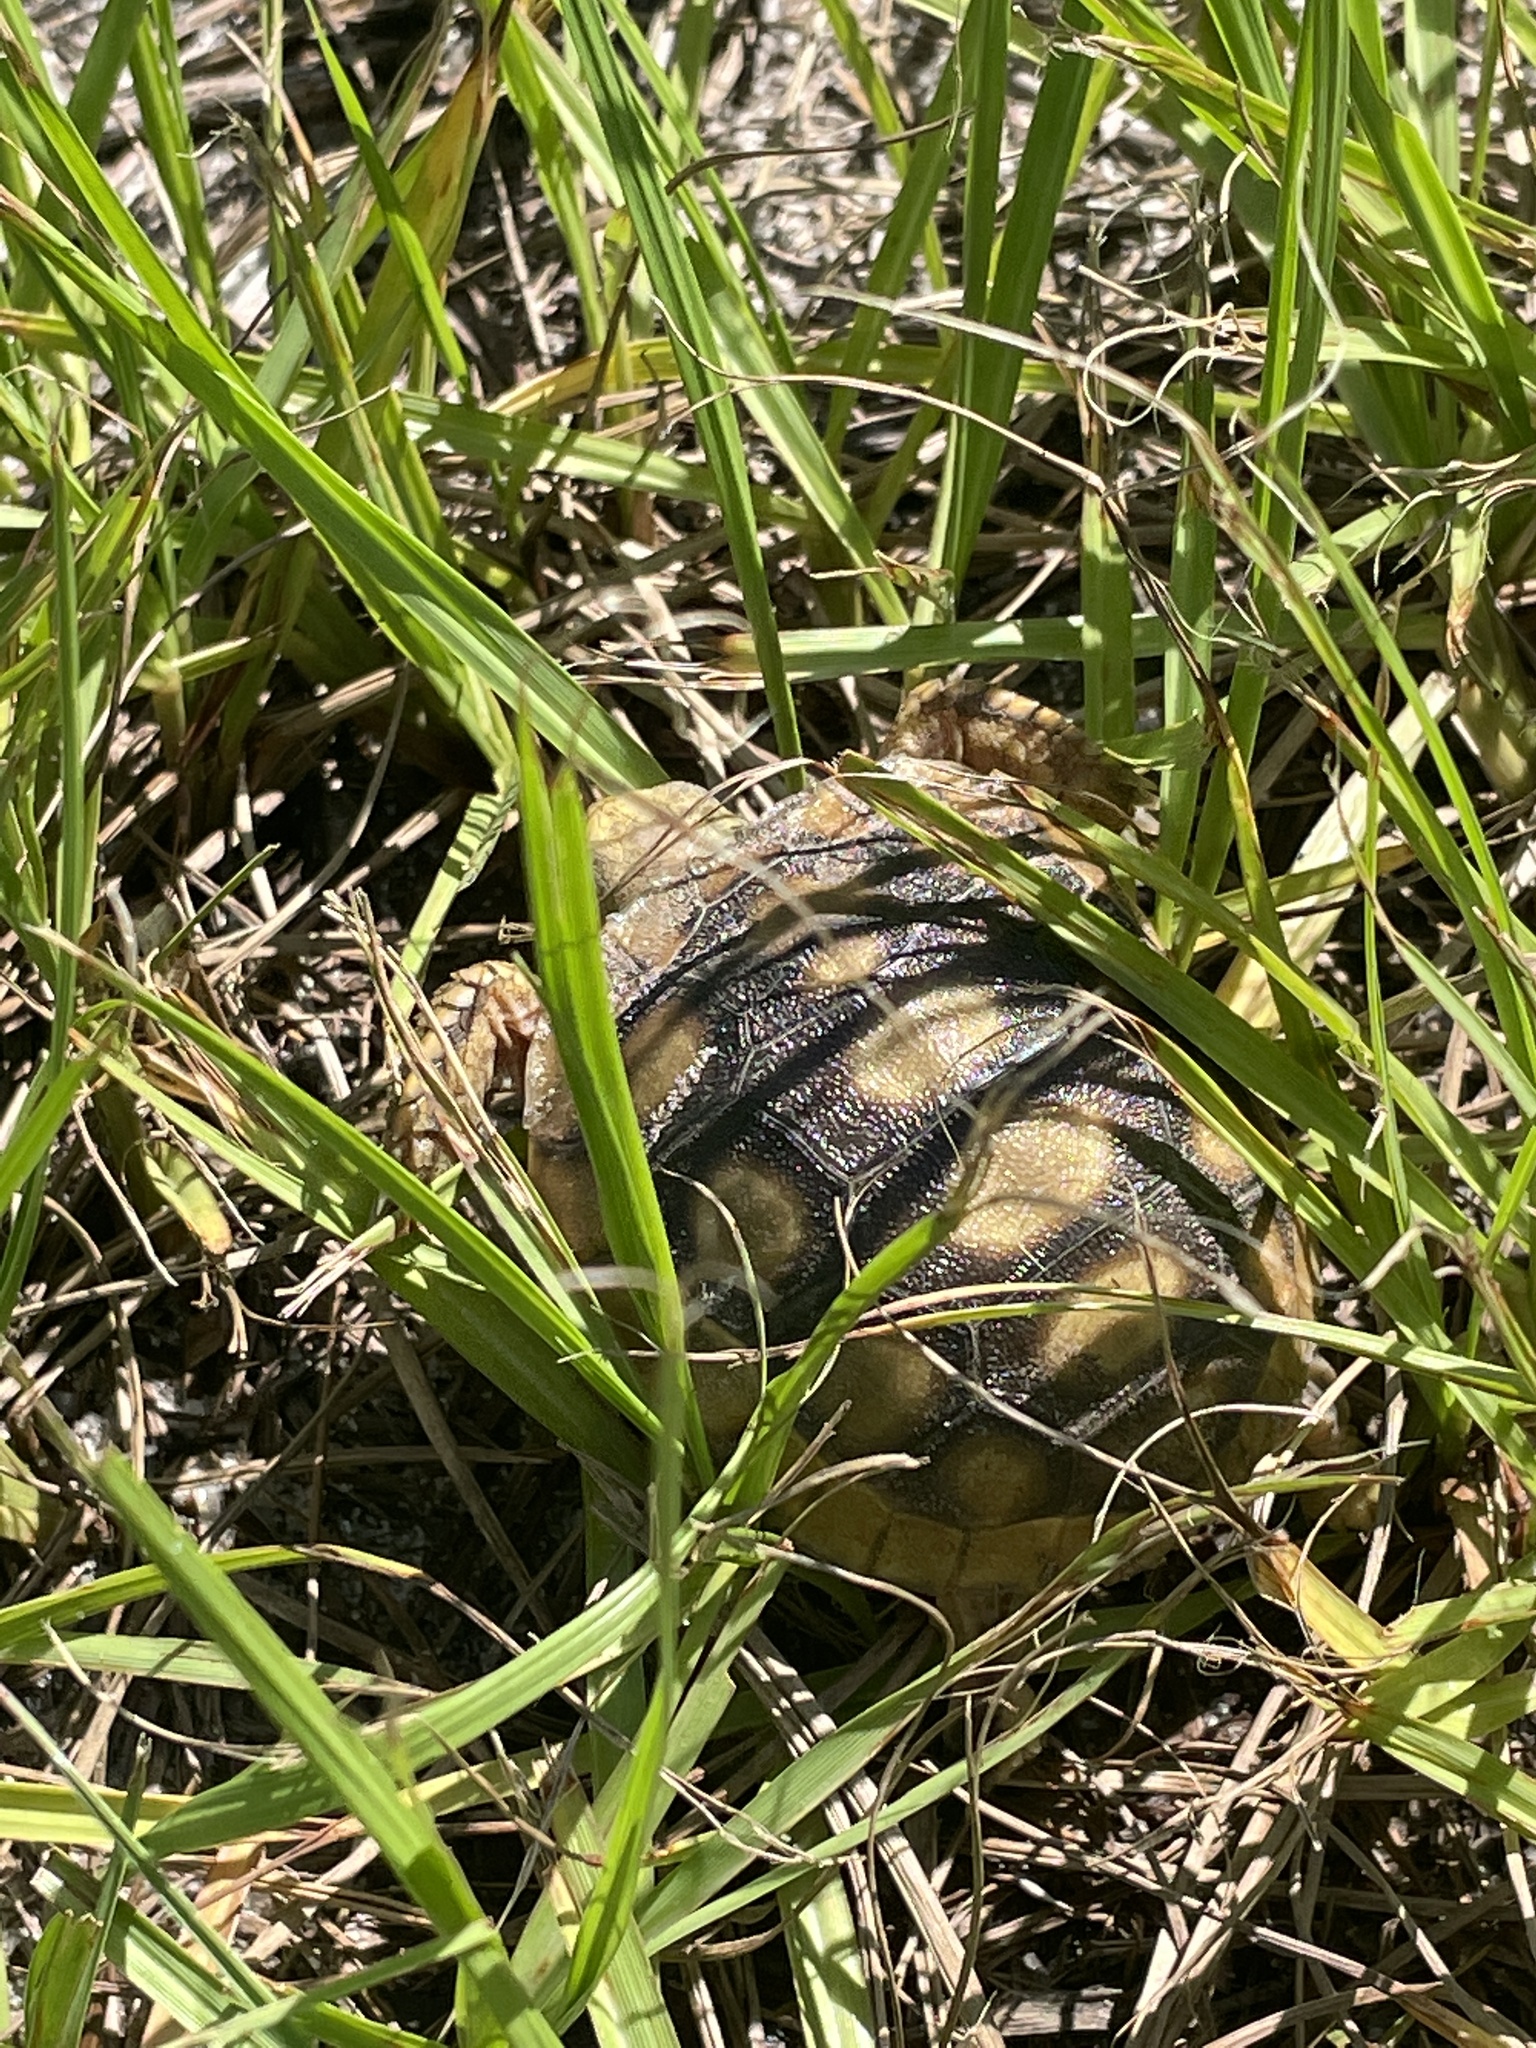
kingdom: Animalia
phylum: Chordata
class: Testudines
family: Testudinidae
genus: Gopherus
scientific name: Gopherus polyphemus
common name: Florida gopher tortoise
